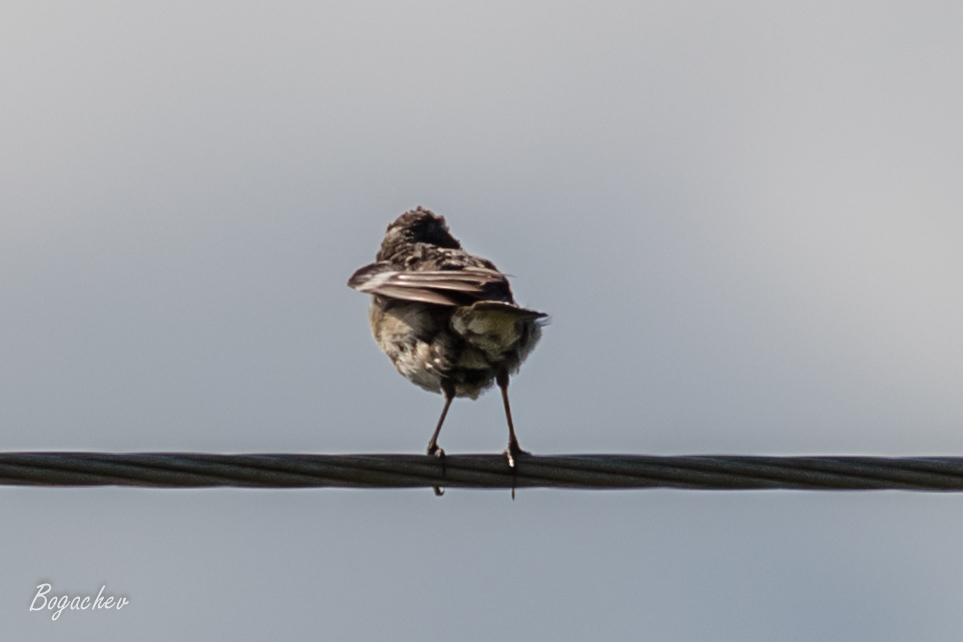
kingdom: Animalia
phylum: Chordata
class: Aves
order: Passeriformes
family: Muscicapidae
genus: Saxicola
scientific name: Saxicola rubetra
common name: Whinchat
